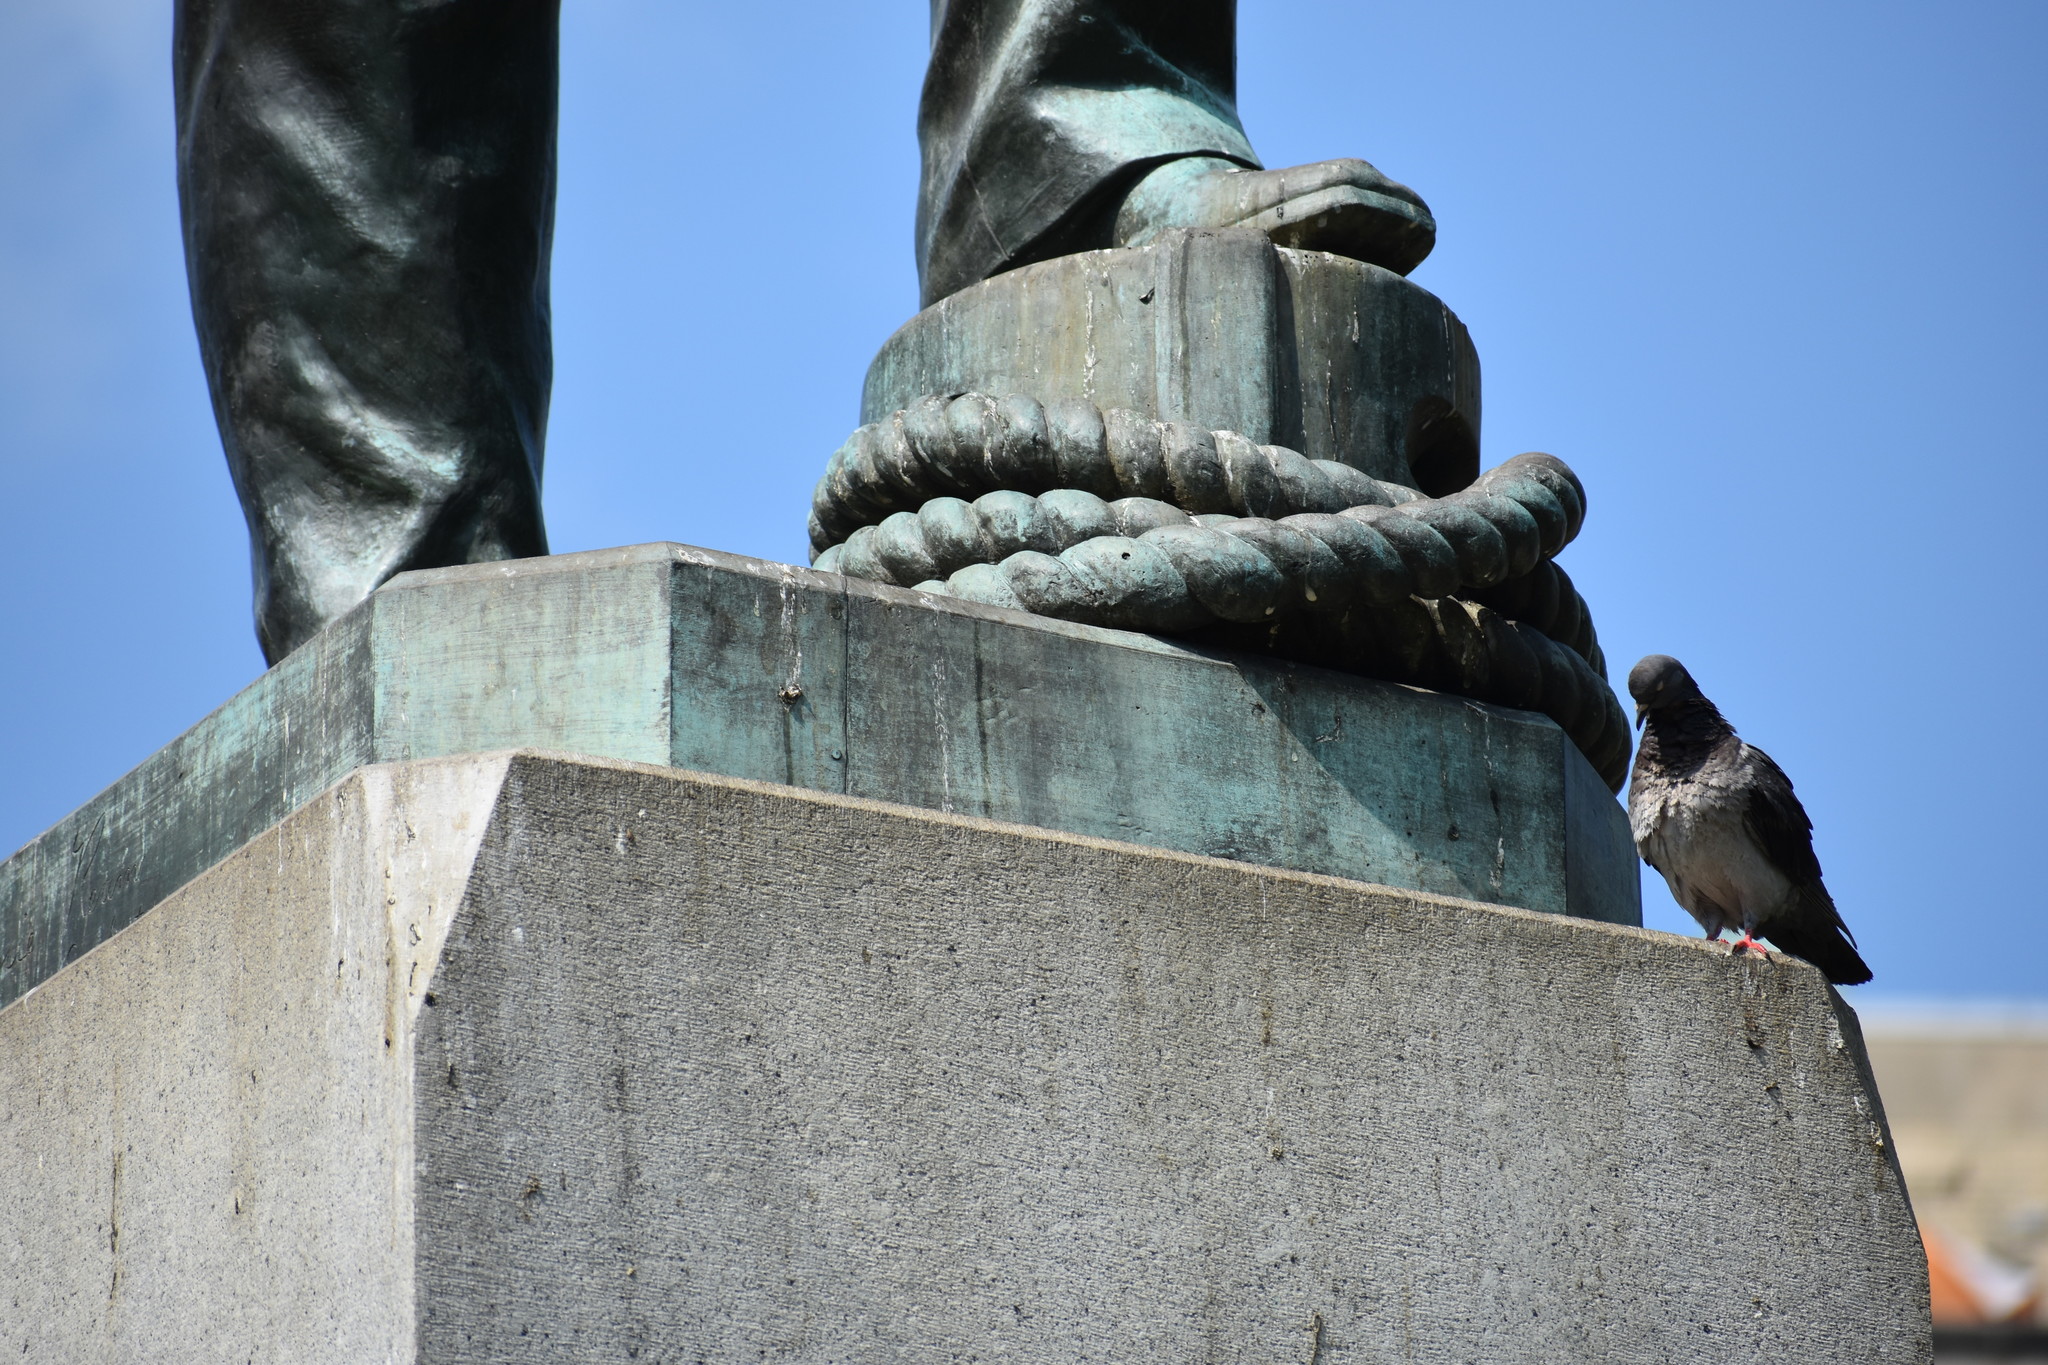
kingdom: Animalia
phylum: Chordata
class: Aves
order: Columbiformes
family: Columbidae
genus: Columba
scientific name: Columba livia
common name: Rock pigeon
